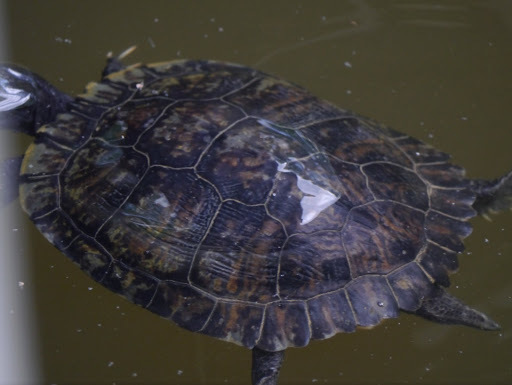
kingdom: Animalia
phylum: Chordata
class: Testudines
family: Emydidae
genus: Trachemys
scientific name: Trachemys scripta
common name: Slider
